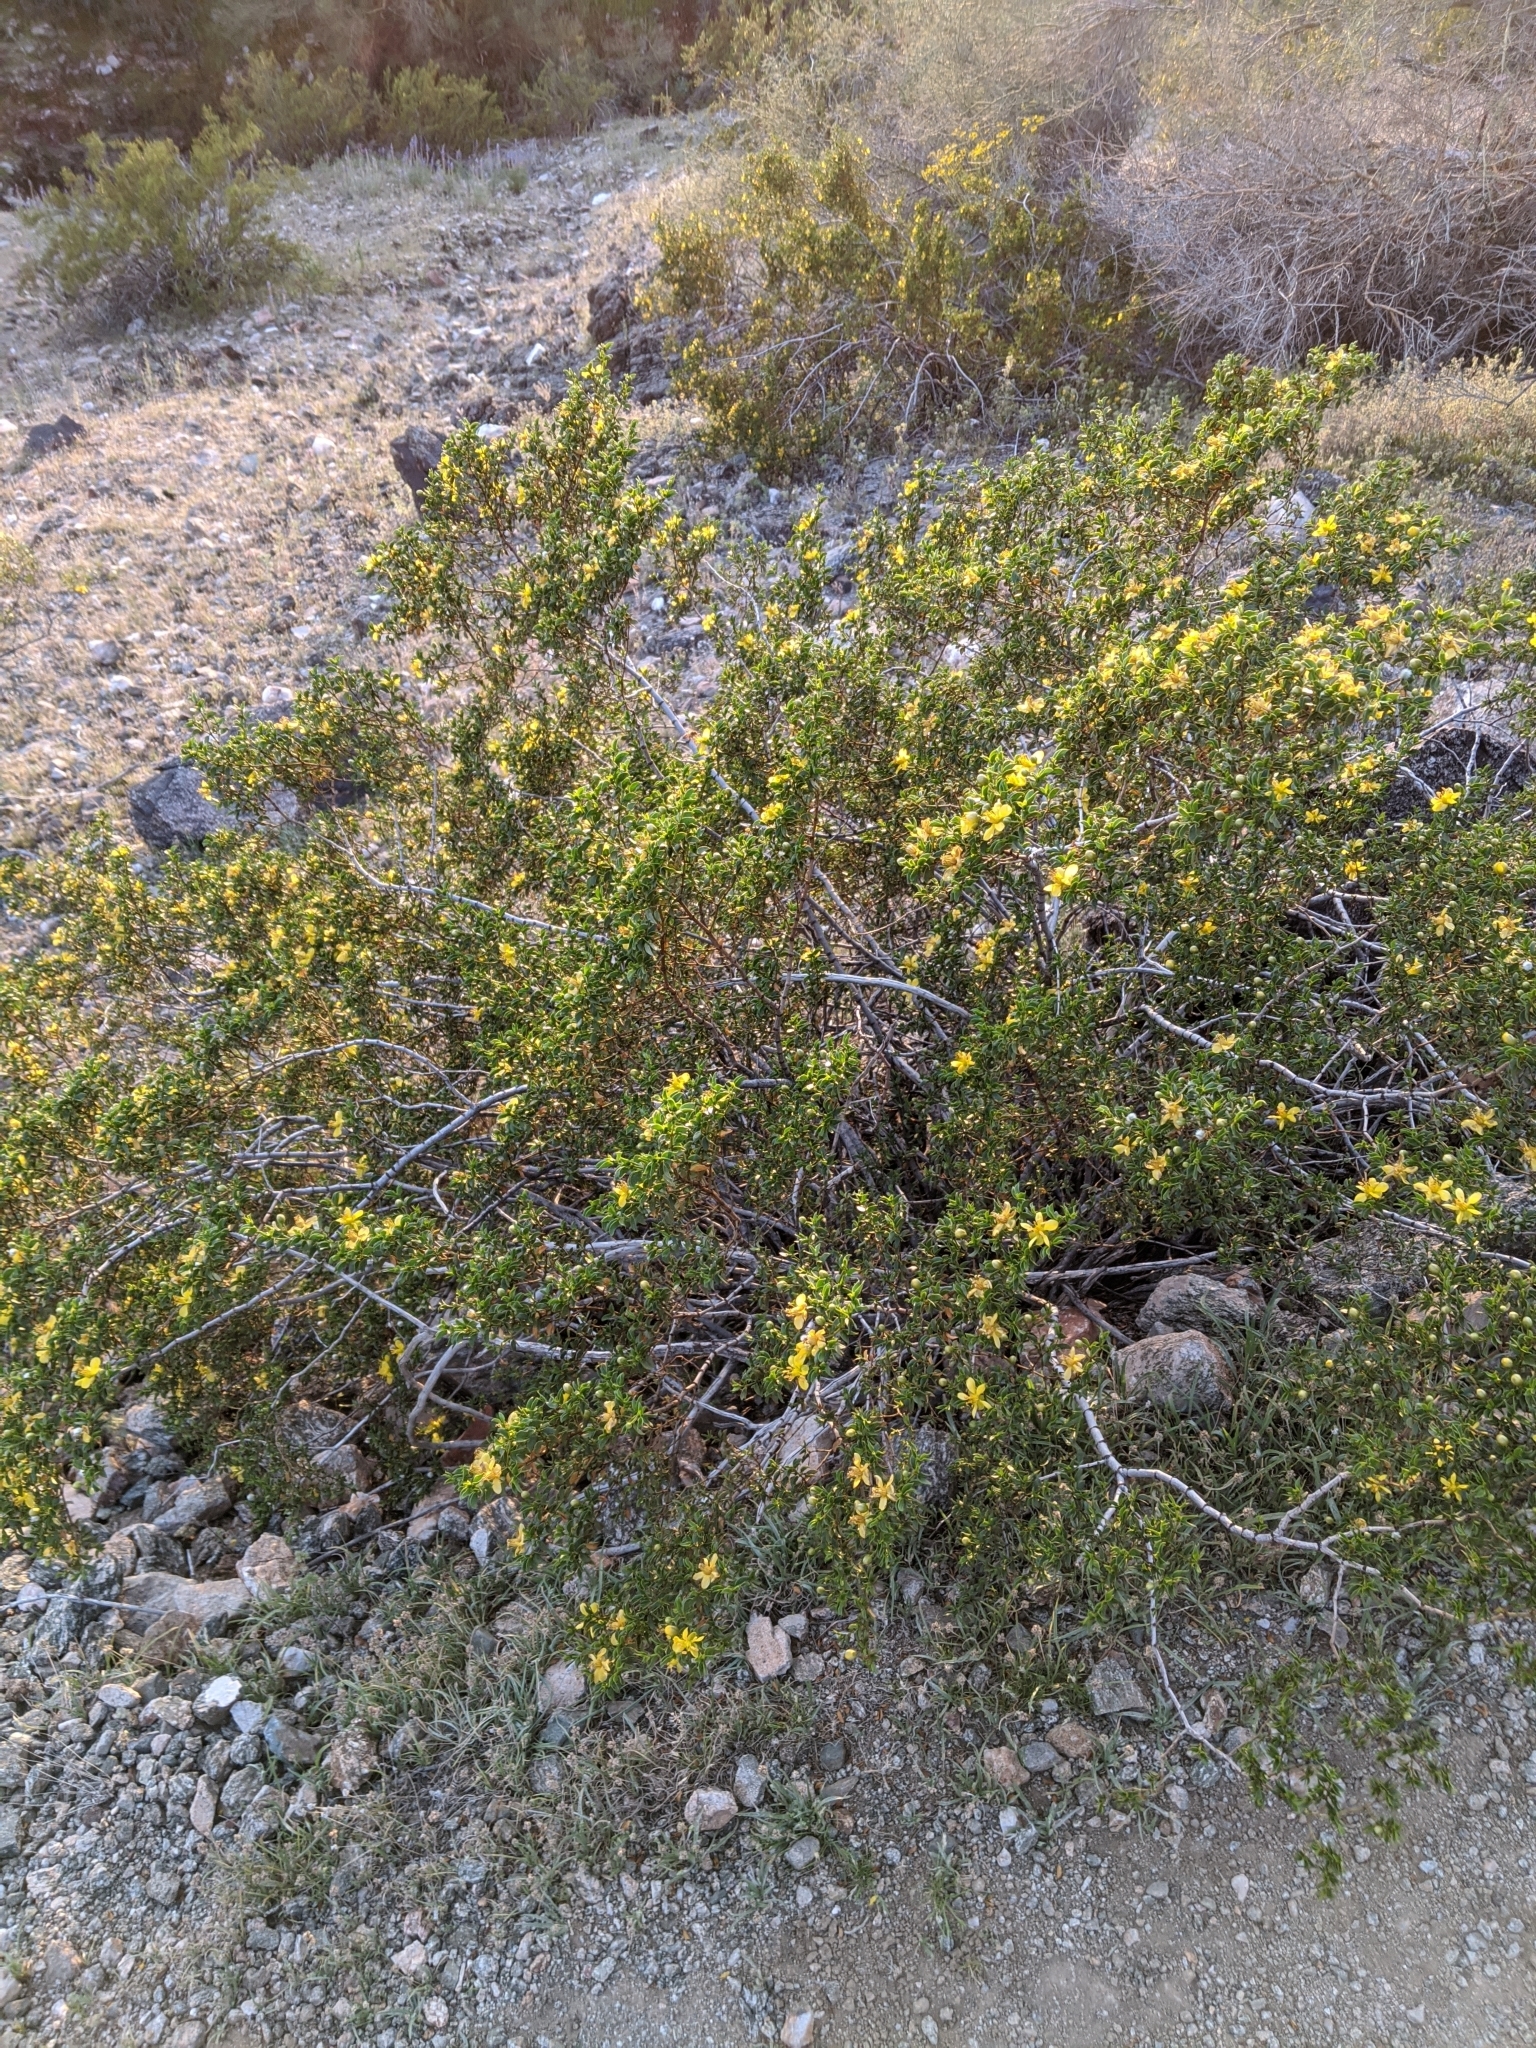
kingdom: Plantae
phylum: Tracheophyta
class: Magnoliopsida
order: Zygophyllales
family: Zygophyllaceae
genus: Larrea
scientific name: Larrea tridentata
